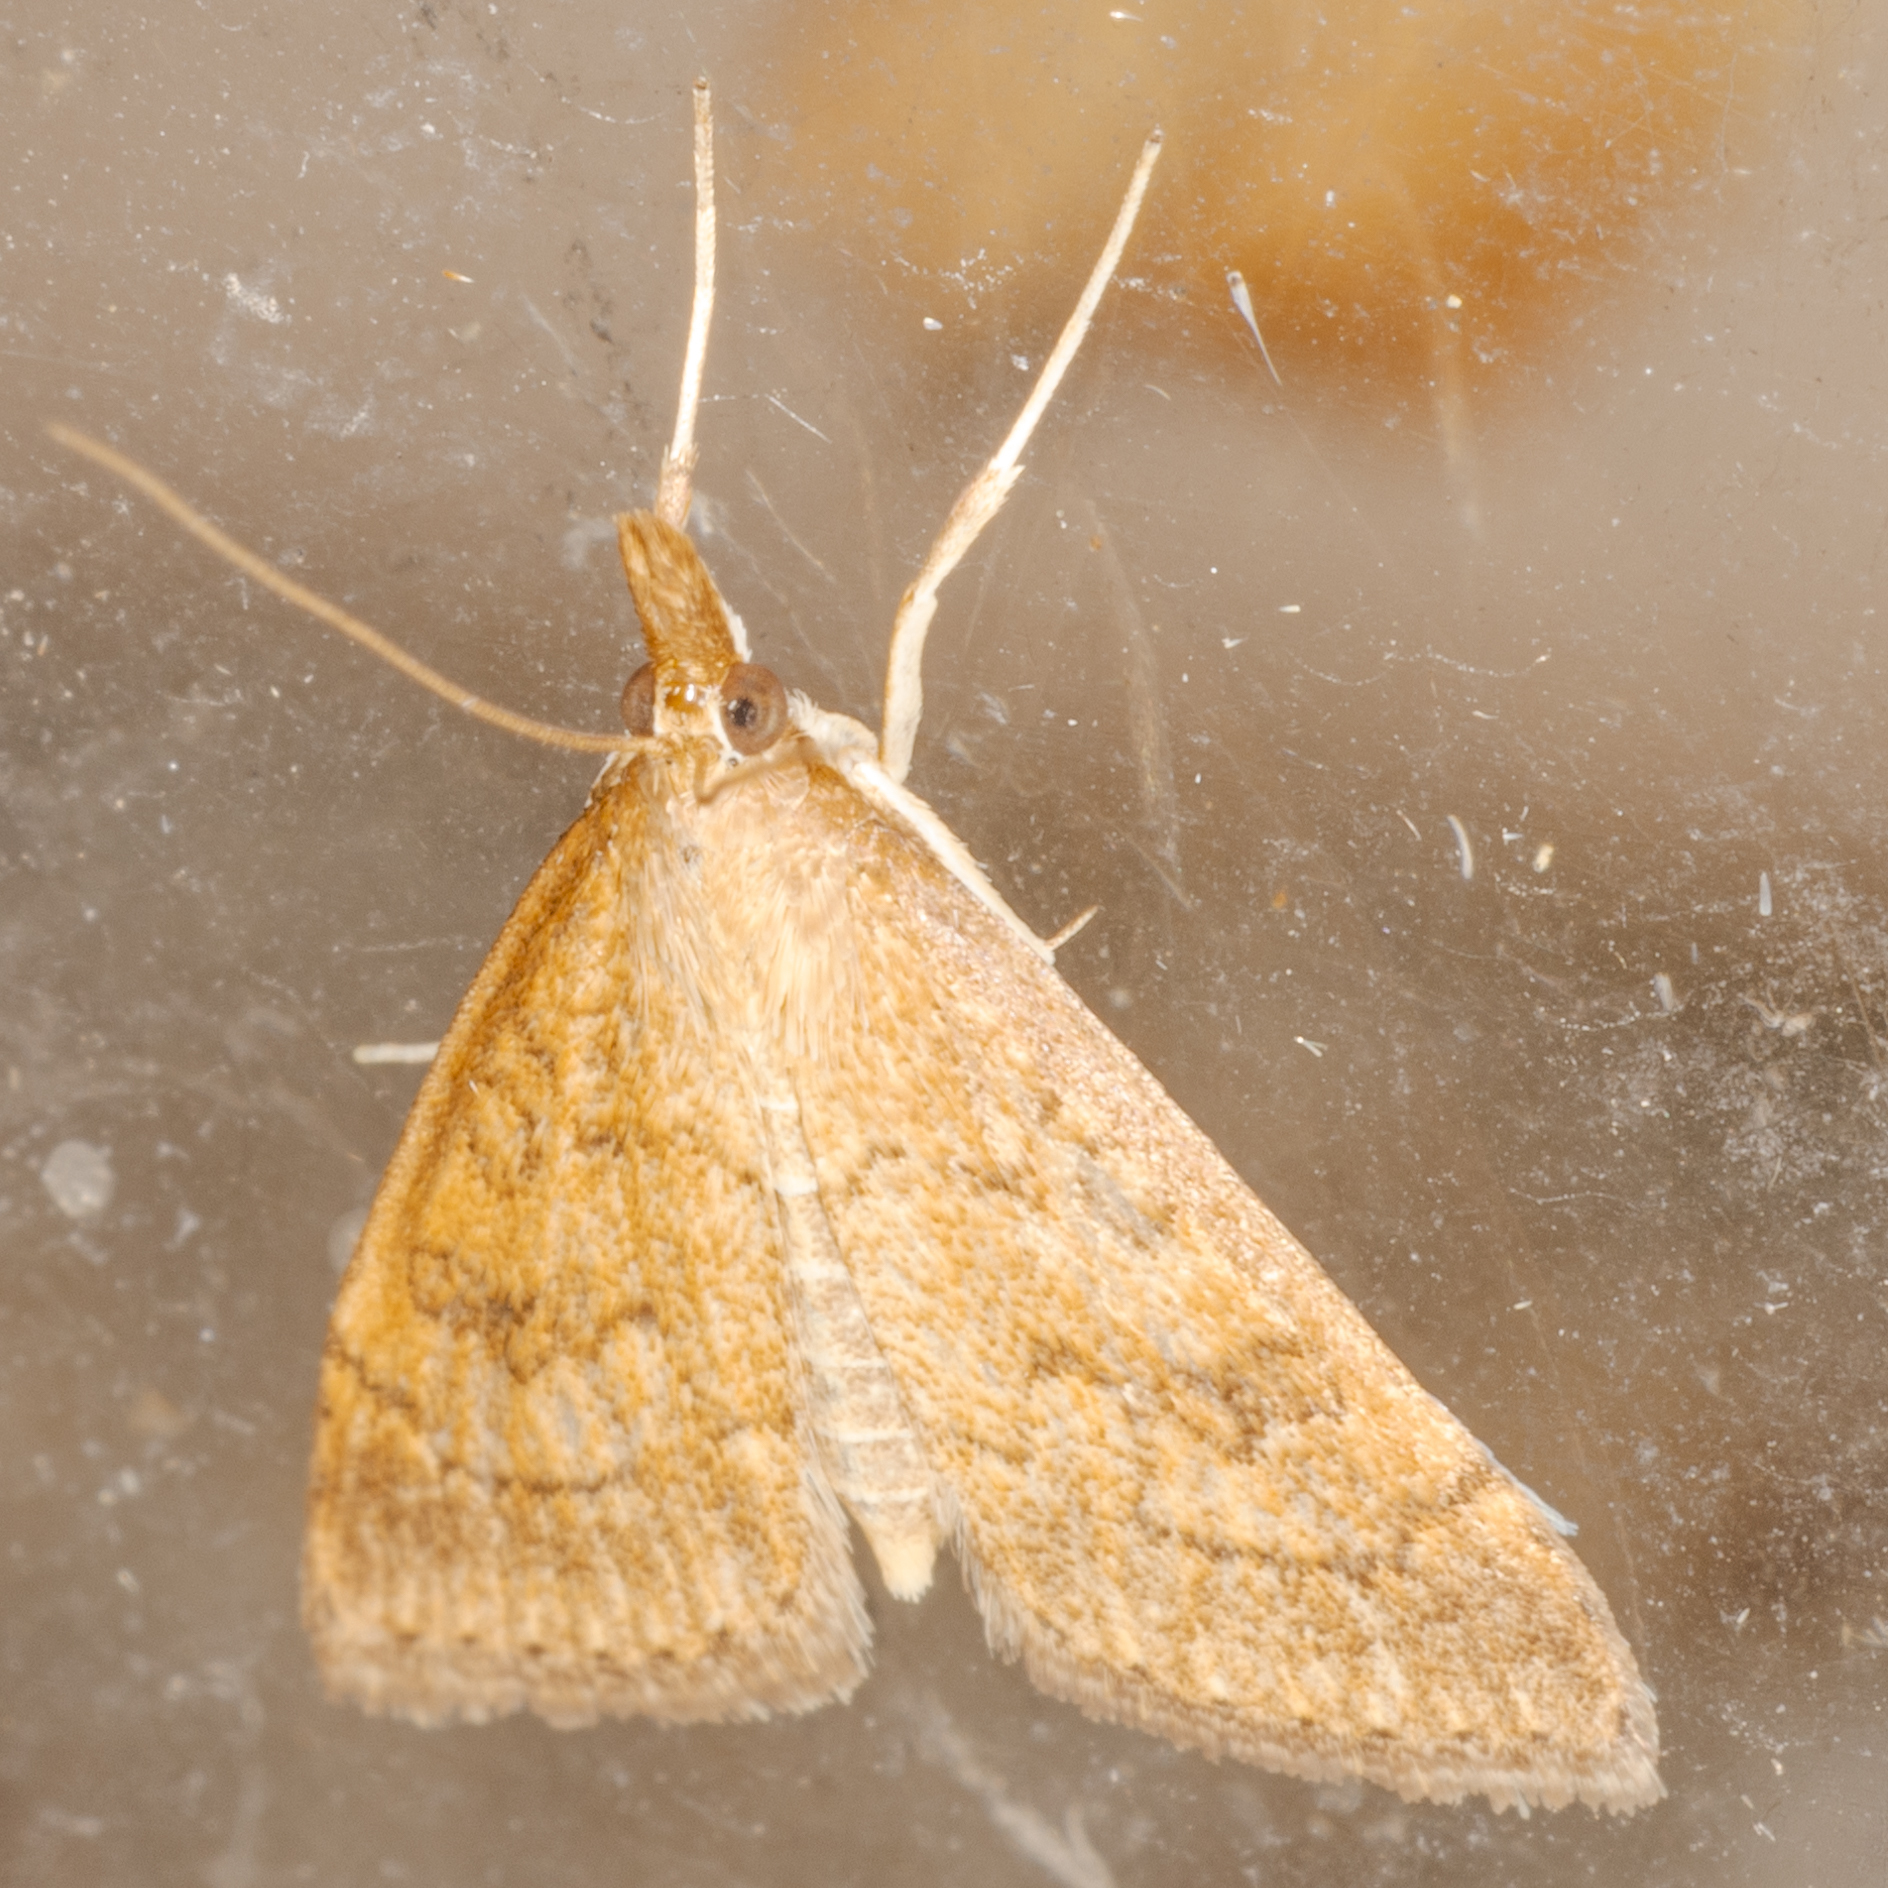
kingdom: Animalia
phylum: Arthropoda
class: Insecta
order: Lepidoptera
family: Crambidae
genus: Udea
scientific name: Udea rubigalis
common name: Celery leaftier moth
